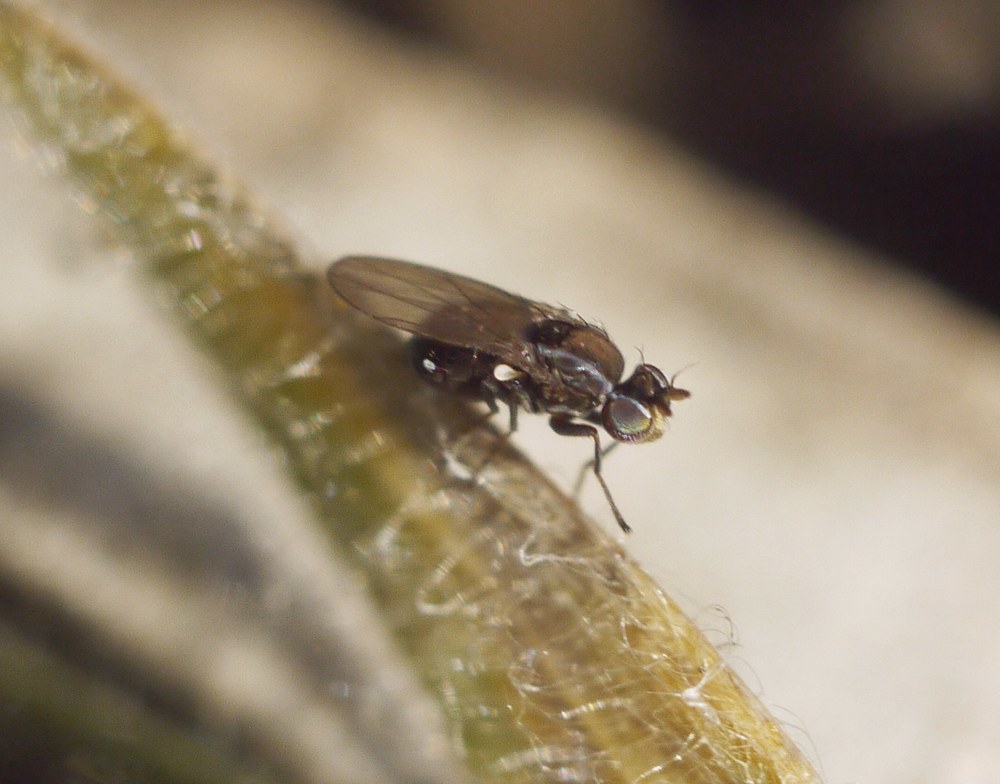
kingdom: Animalia
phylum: Arthropoda
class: Insecta
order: Diptera
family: Ephydridae
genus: Nostima
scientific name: Nostima picta
